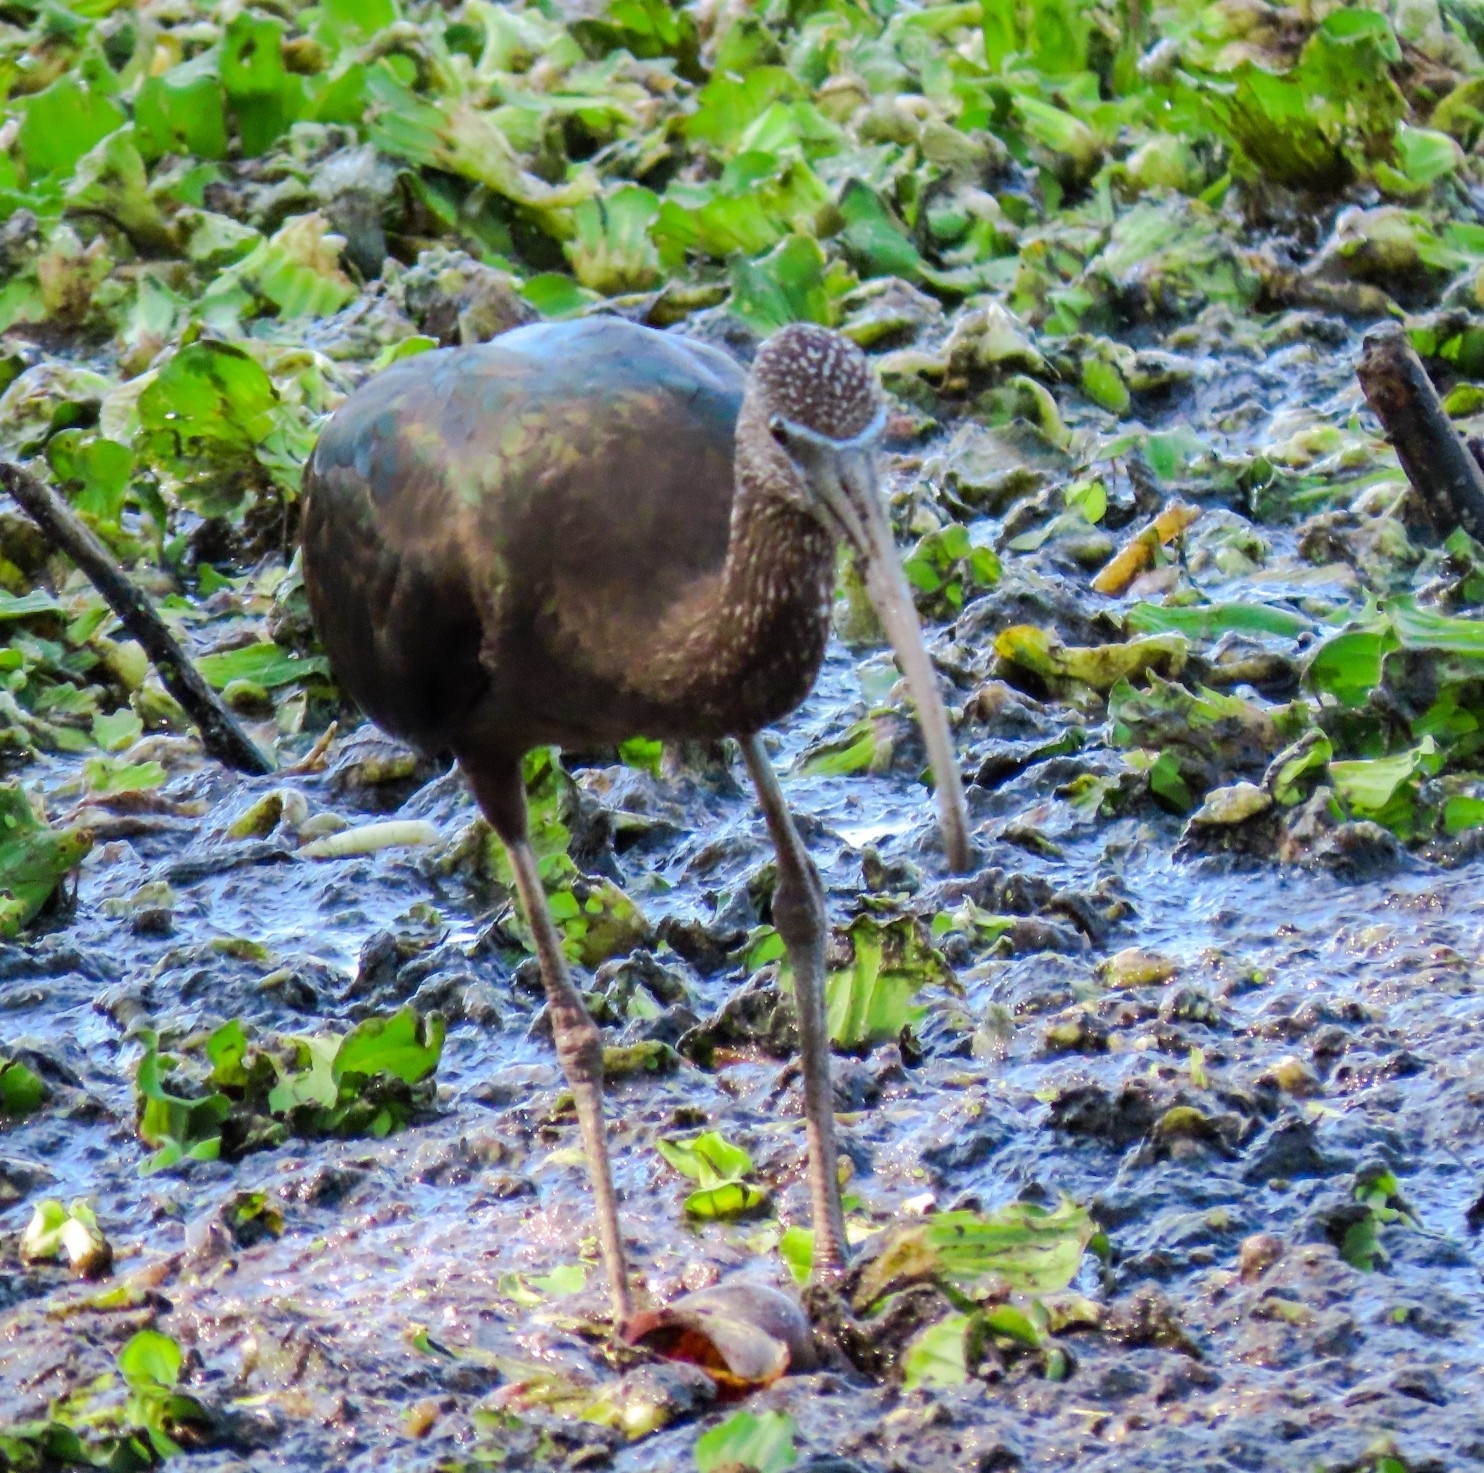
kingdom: Animalia
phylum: Chordata
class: Aves
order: Pelecaniformes
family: Threskiornithidae
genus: Plegadis
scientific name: Plegadis falcinellus
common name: Glossy ibis
